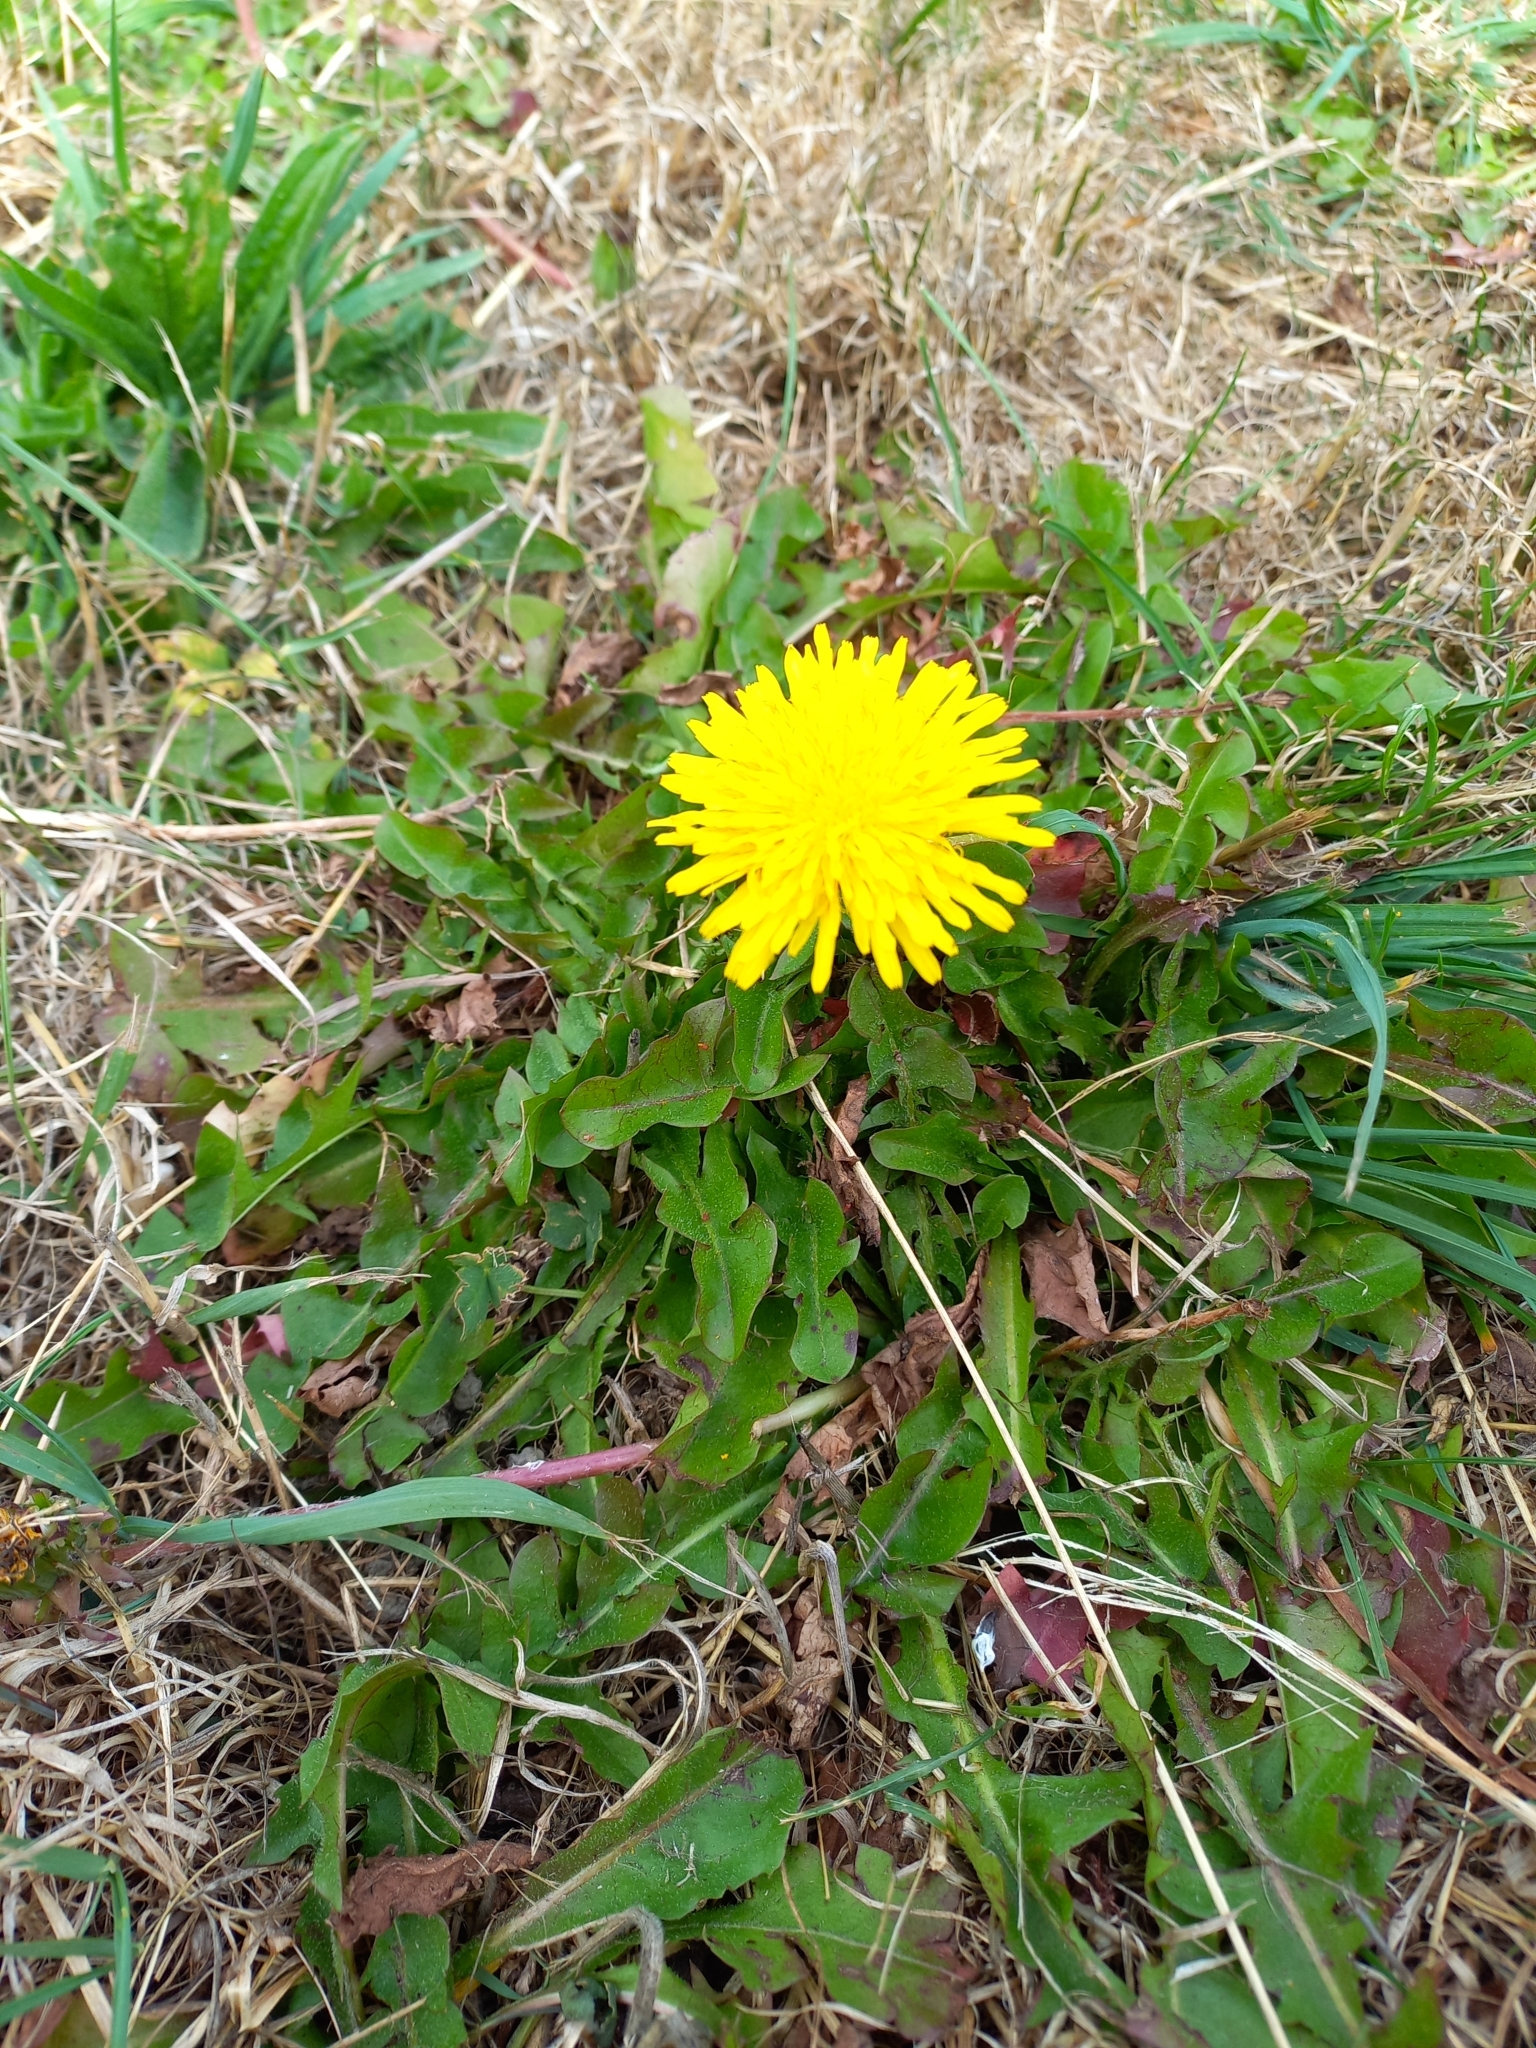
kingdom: Plantae
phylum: Tracheophyta
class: Magnoliopsida
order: Asterales
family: Asteraceae
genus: Taraxacum
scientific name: Taraxacum officinale
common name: Common dandelion
